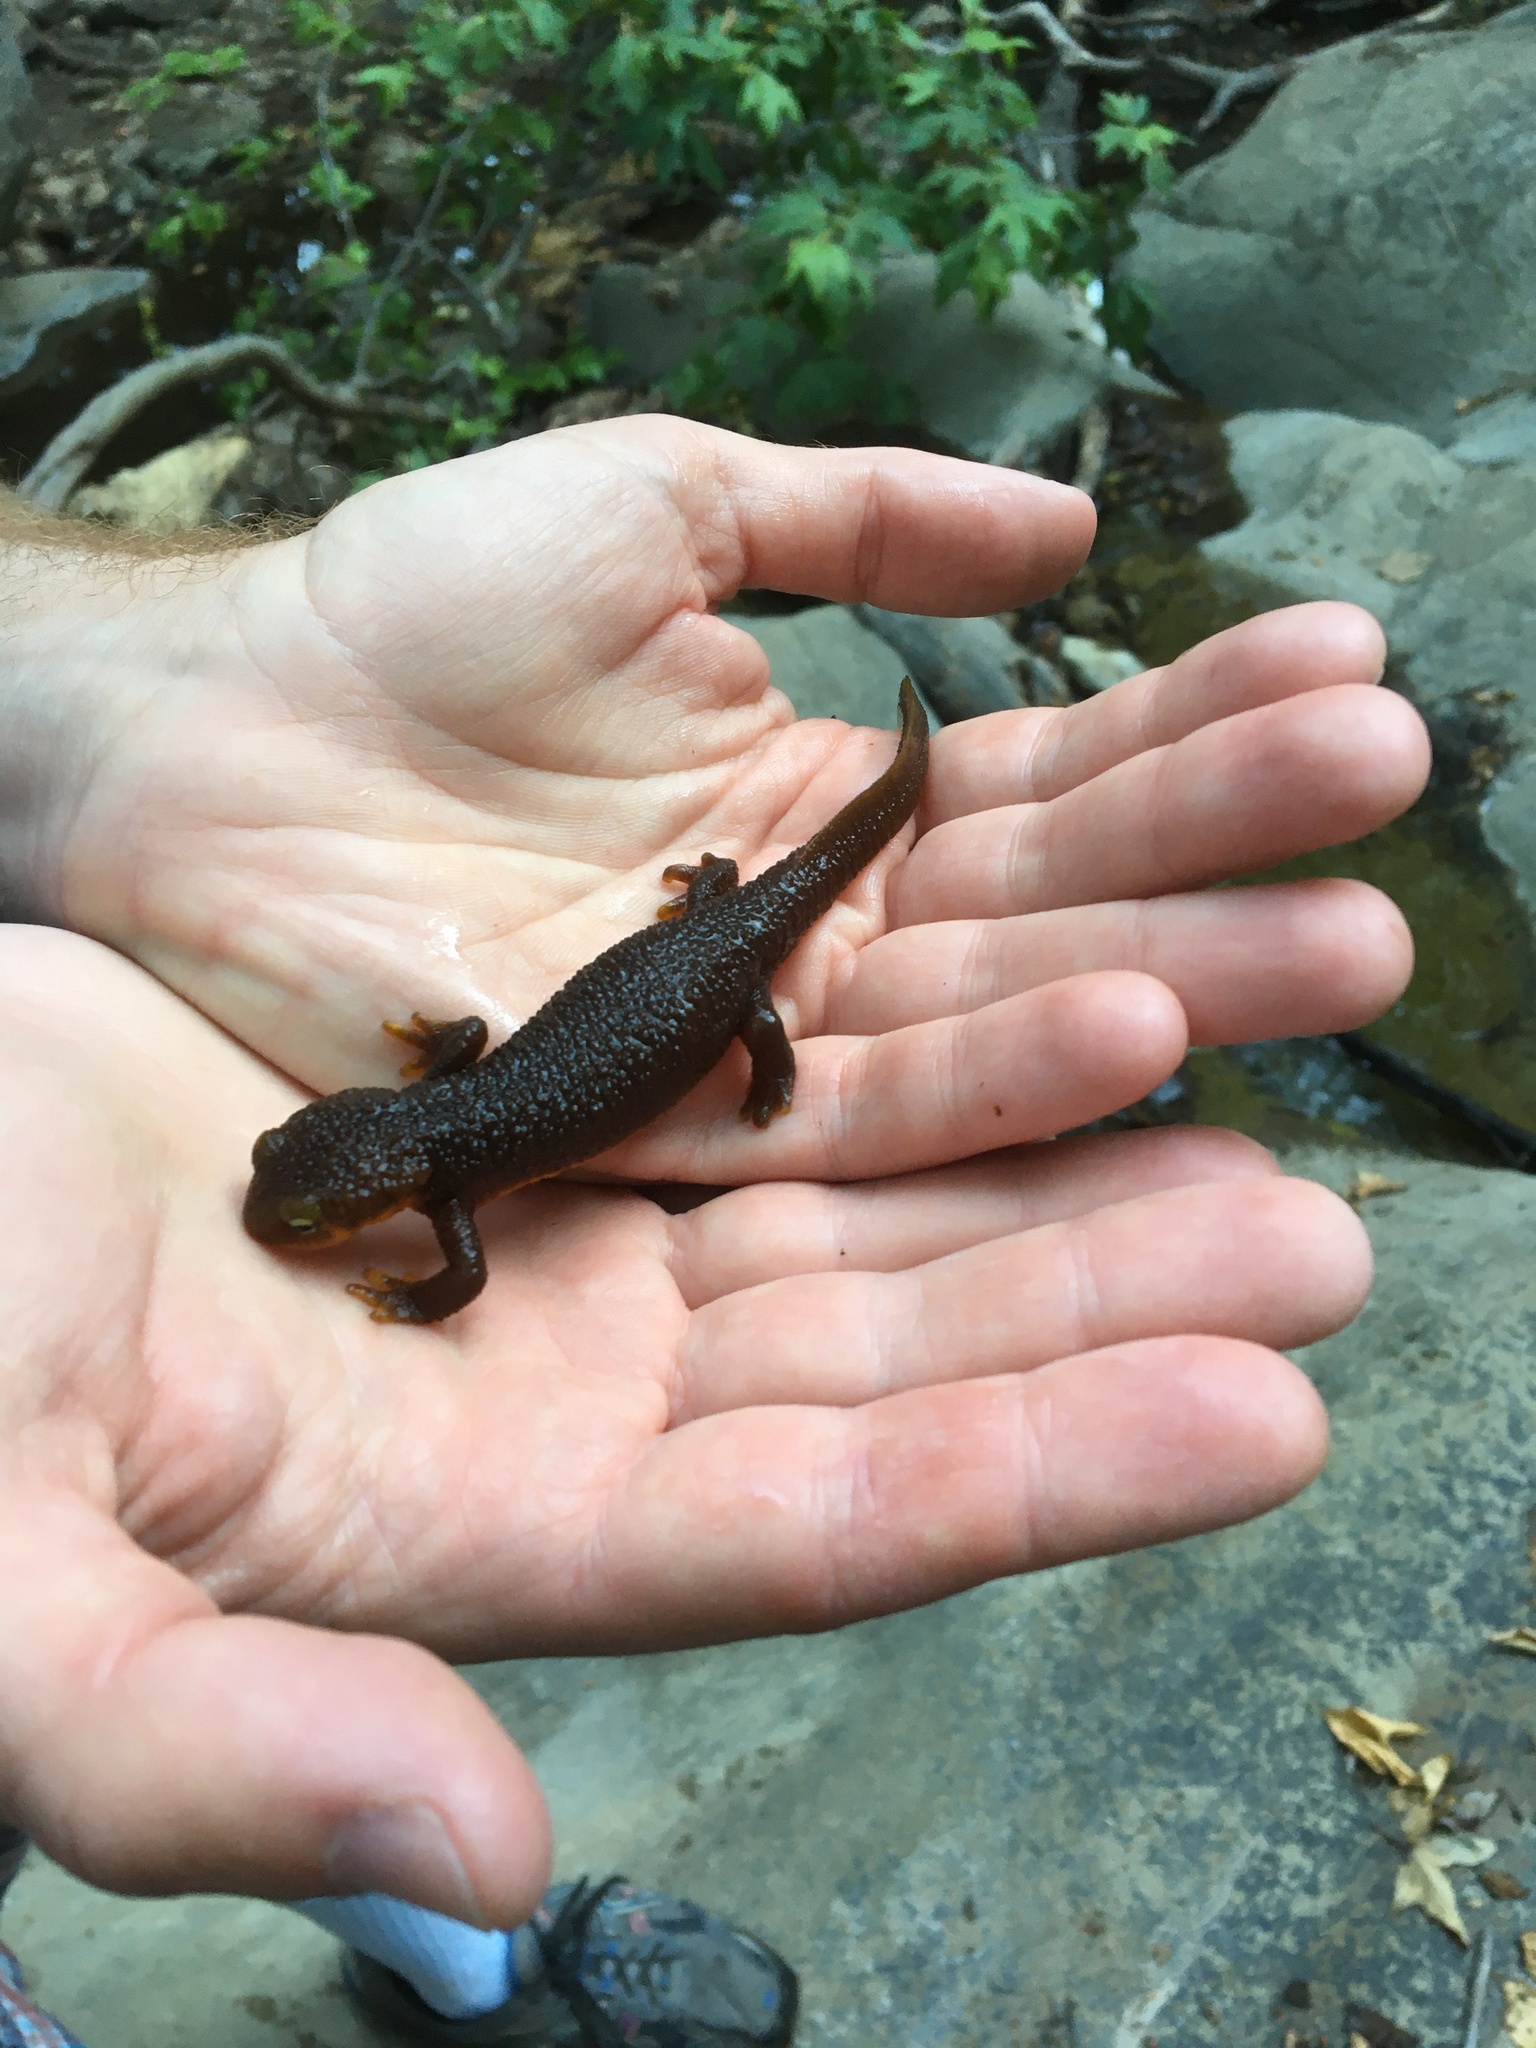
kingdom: Animalia
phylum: Chordata
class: Amphibia
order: Caudata
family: Salamandridae
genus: Taricha
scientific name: Taricha torosa
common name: California newt
